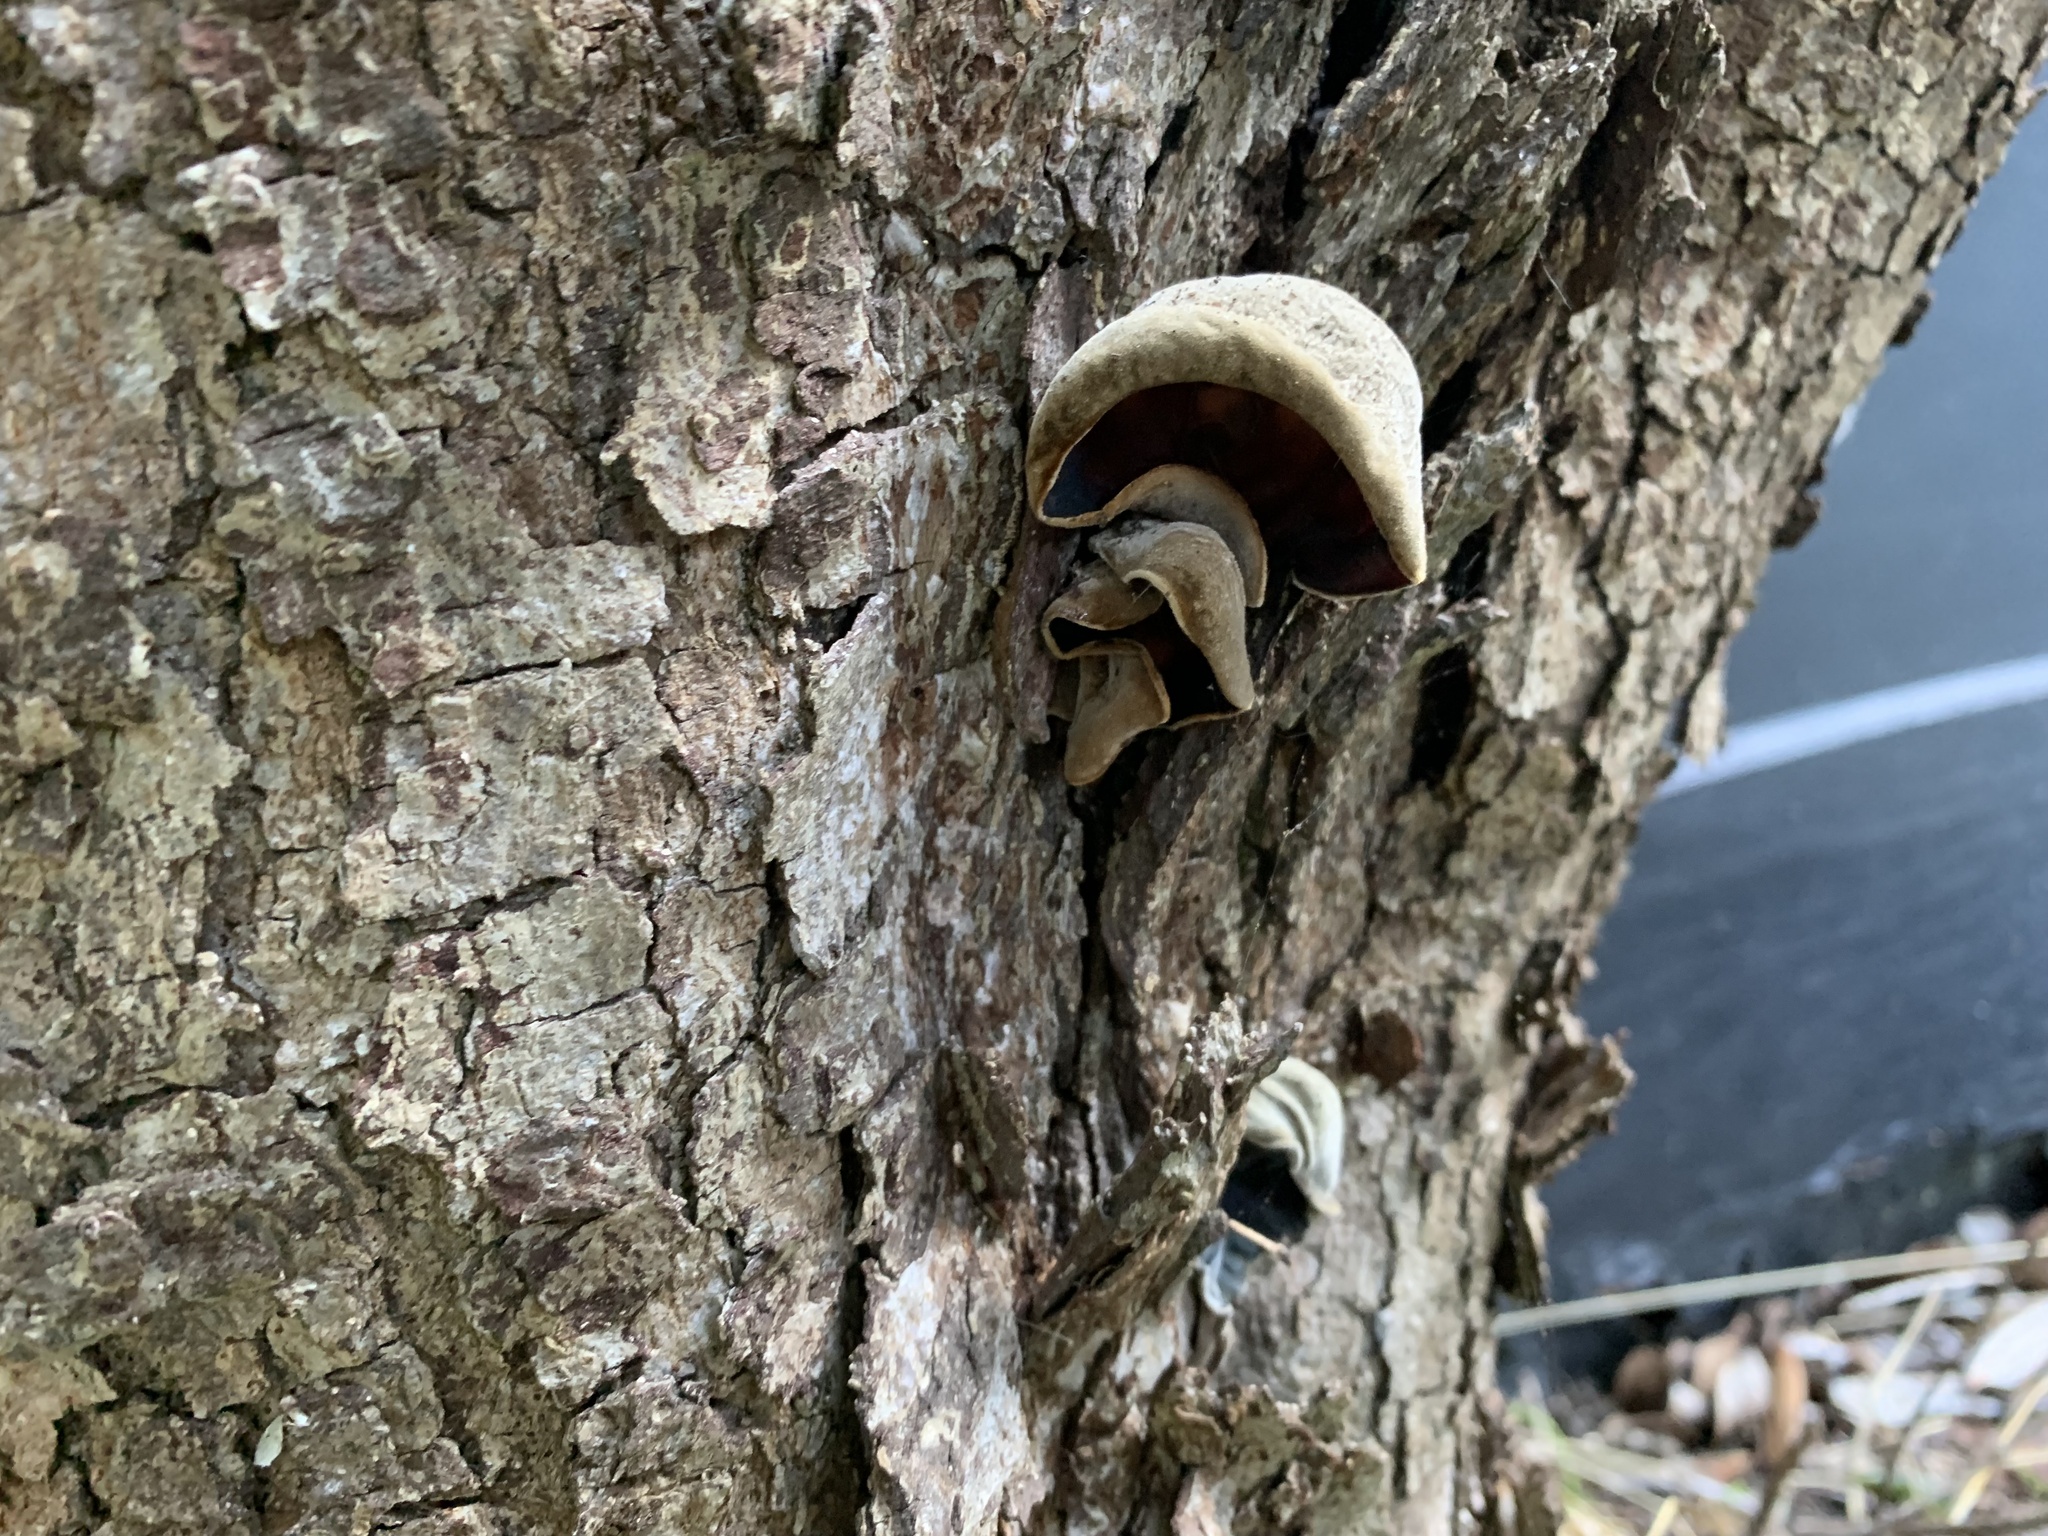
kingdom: Fungi
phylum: Basidiomycota
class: Agaricomycetes
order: Auriculariales
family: Auriculariaceae
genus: Auricularia
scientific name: Auricularia cornea
